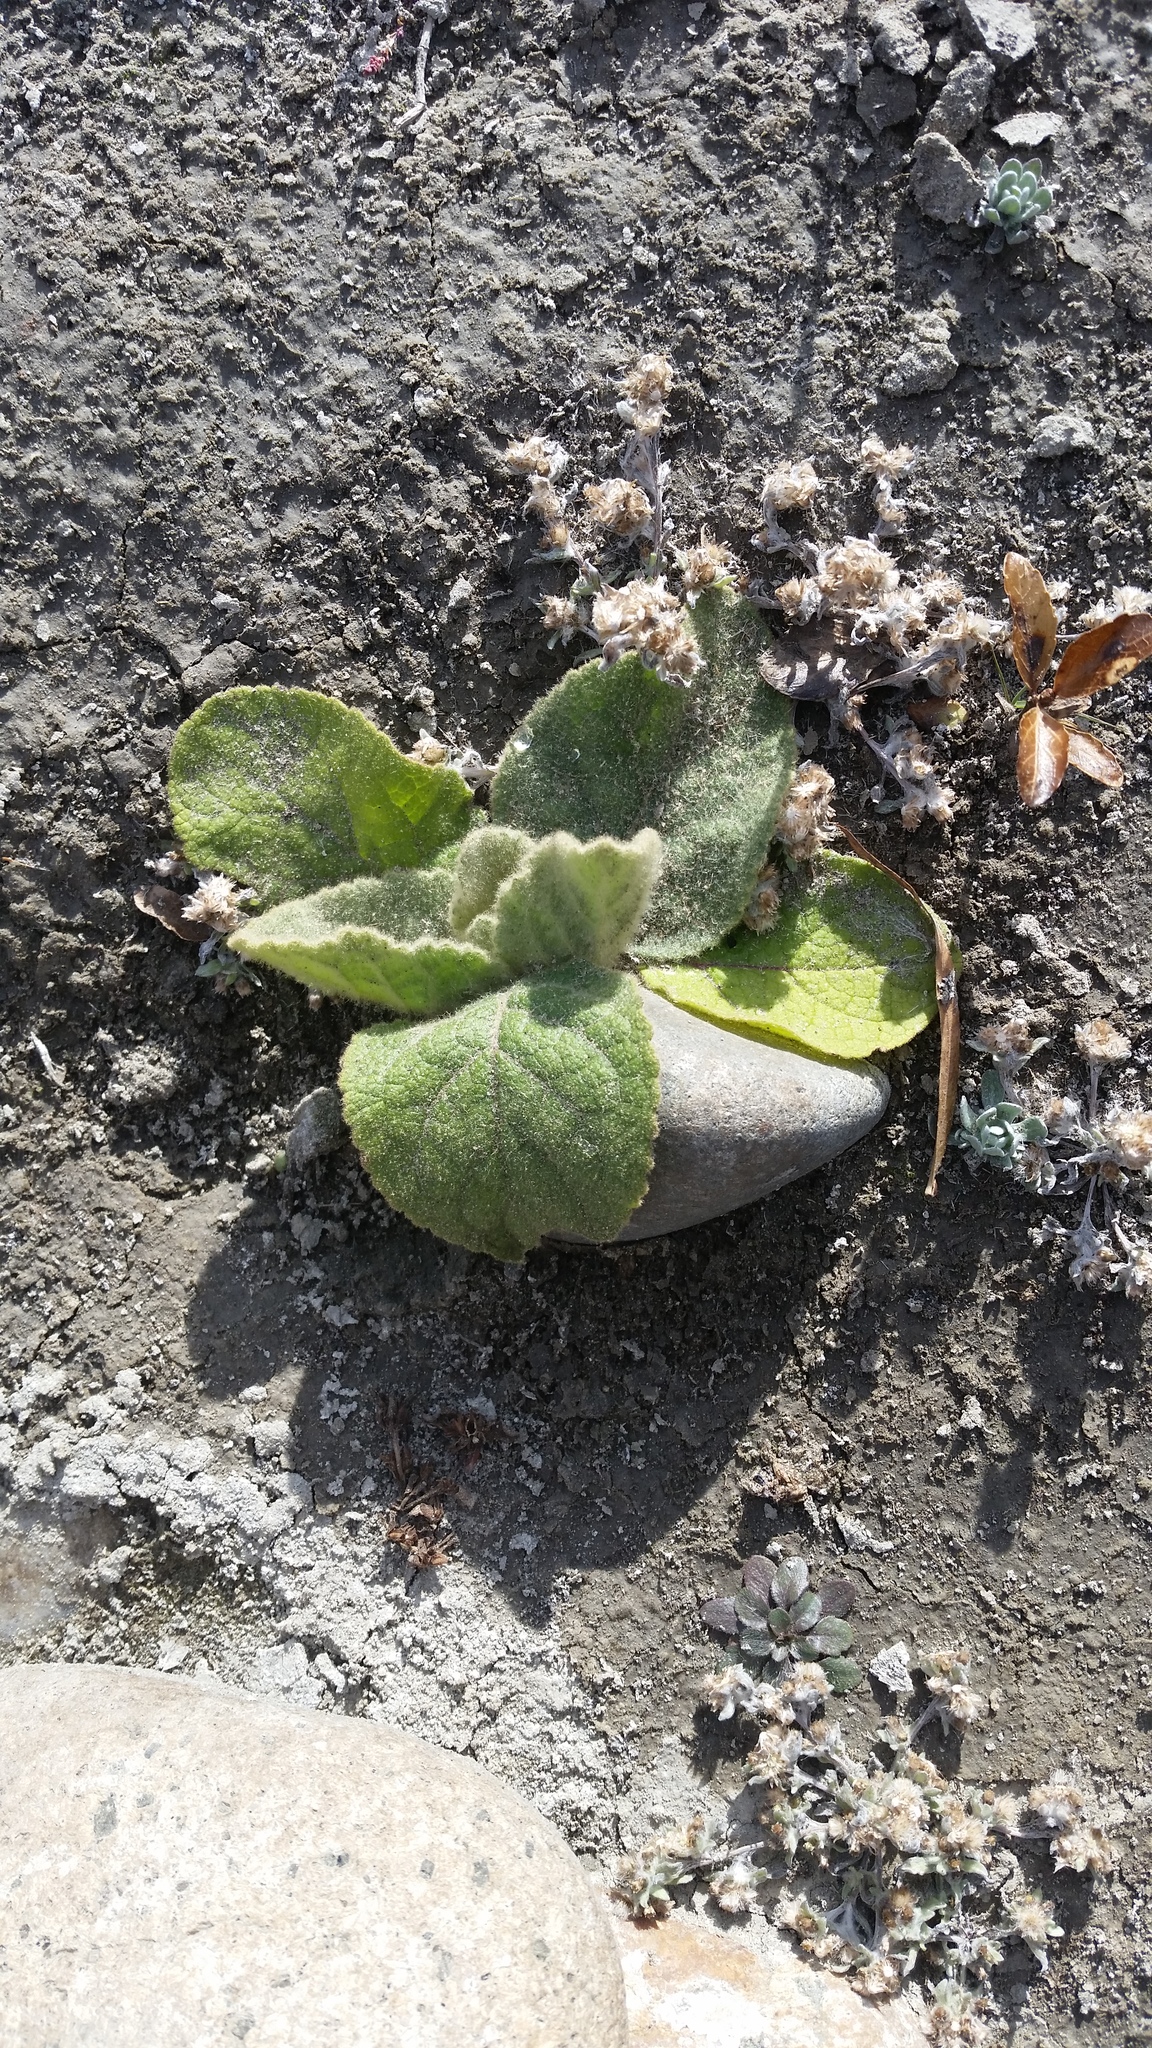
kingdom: Plantae
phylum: Tracheophyta
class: Magnoliopsida
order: Lamiales
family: Scrophulariaceae
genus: Verbascum
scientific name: Verbascum thapsus
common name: Common mullein
